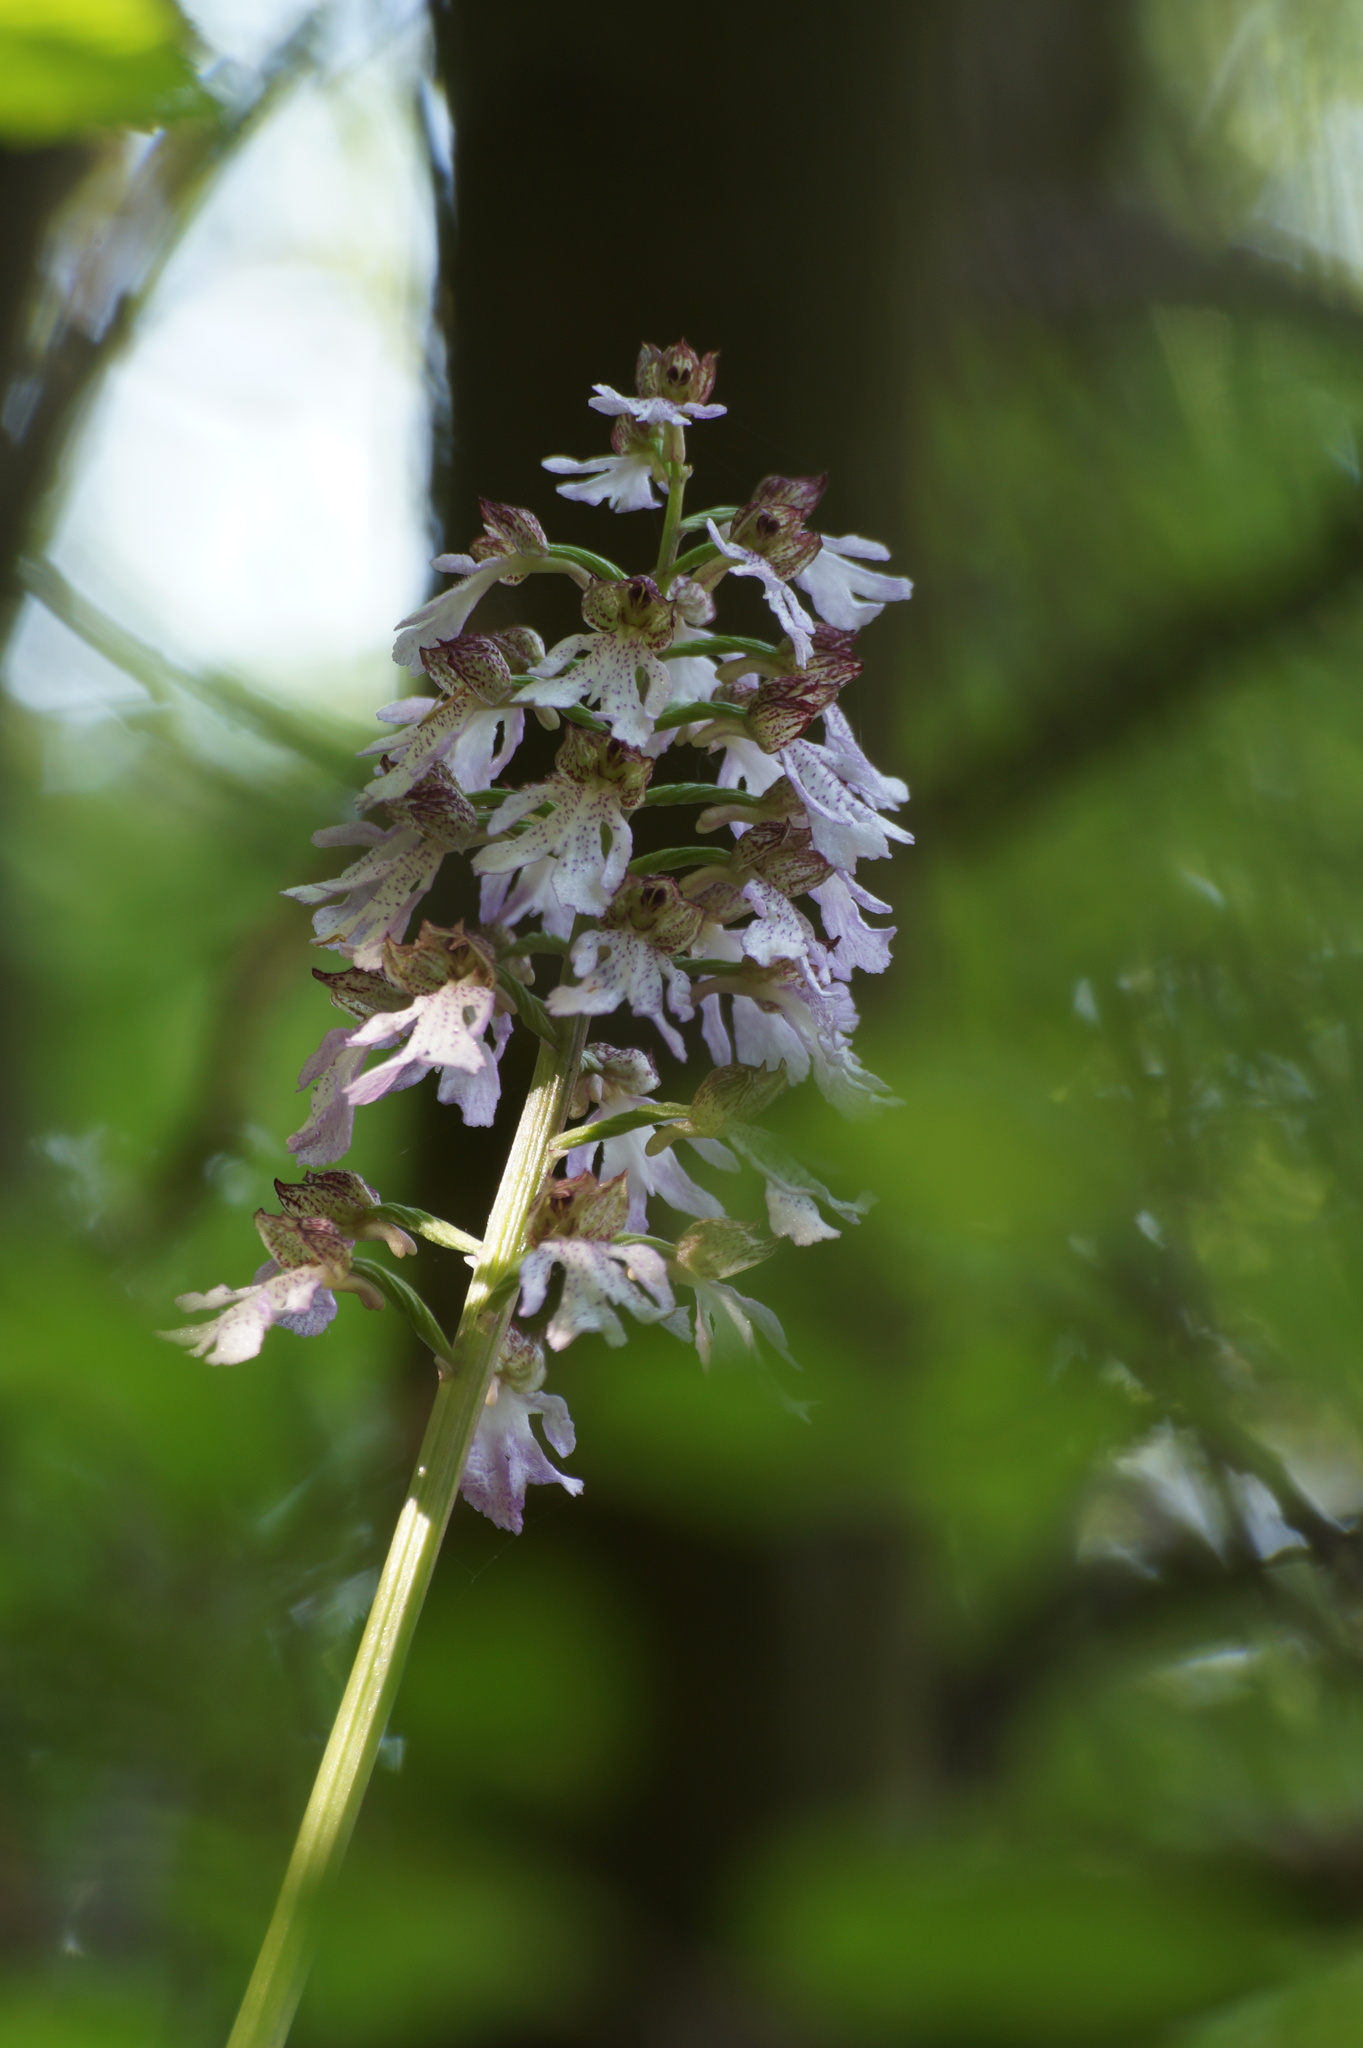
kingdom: Plantae
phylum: Tracheophyta
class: Liliopsida
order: Asparagales
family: Orchidaceae
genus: Orchis
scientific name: Orchis purpurea
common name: Lady orchid
